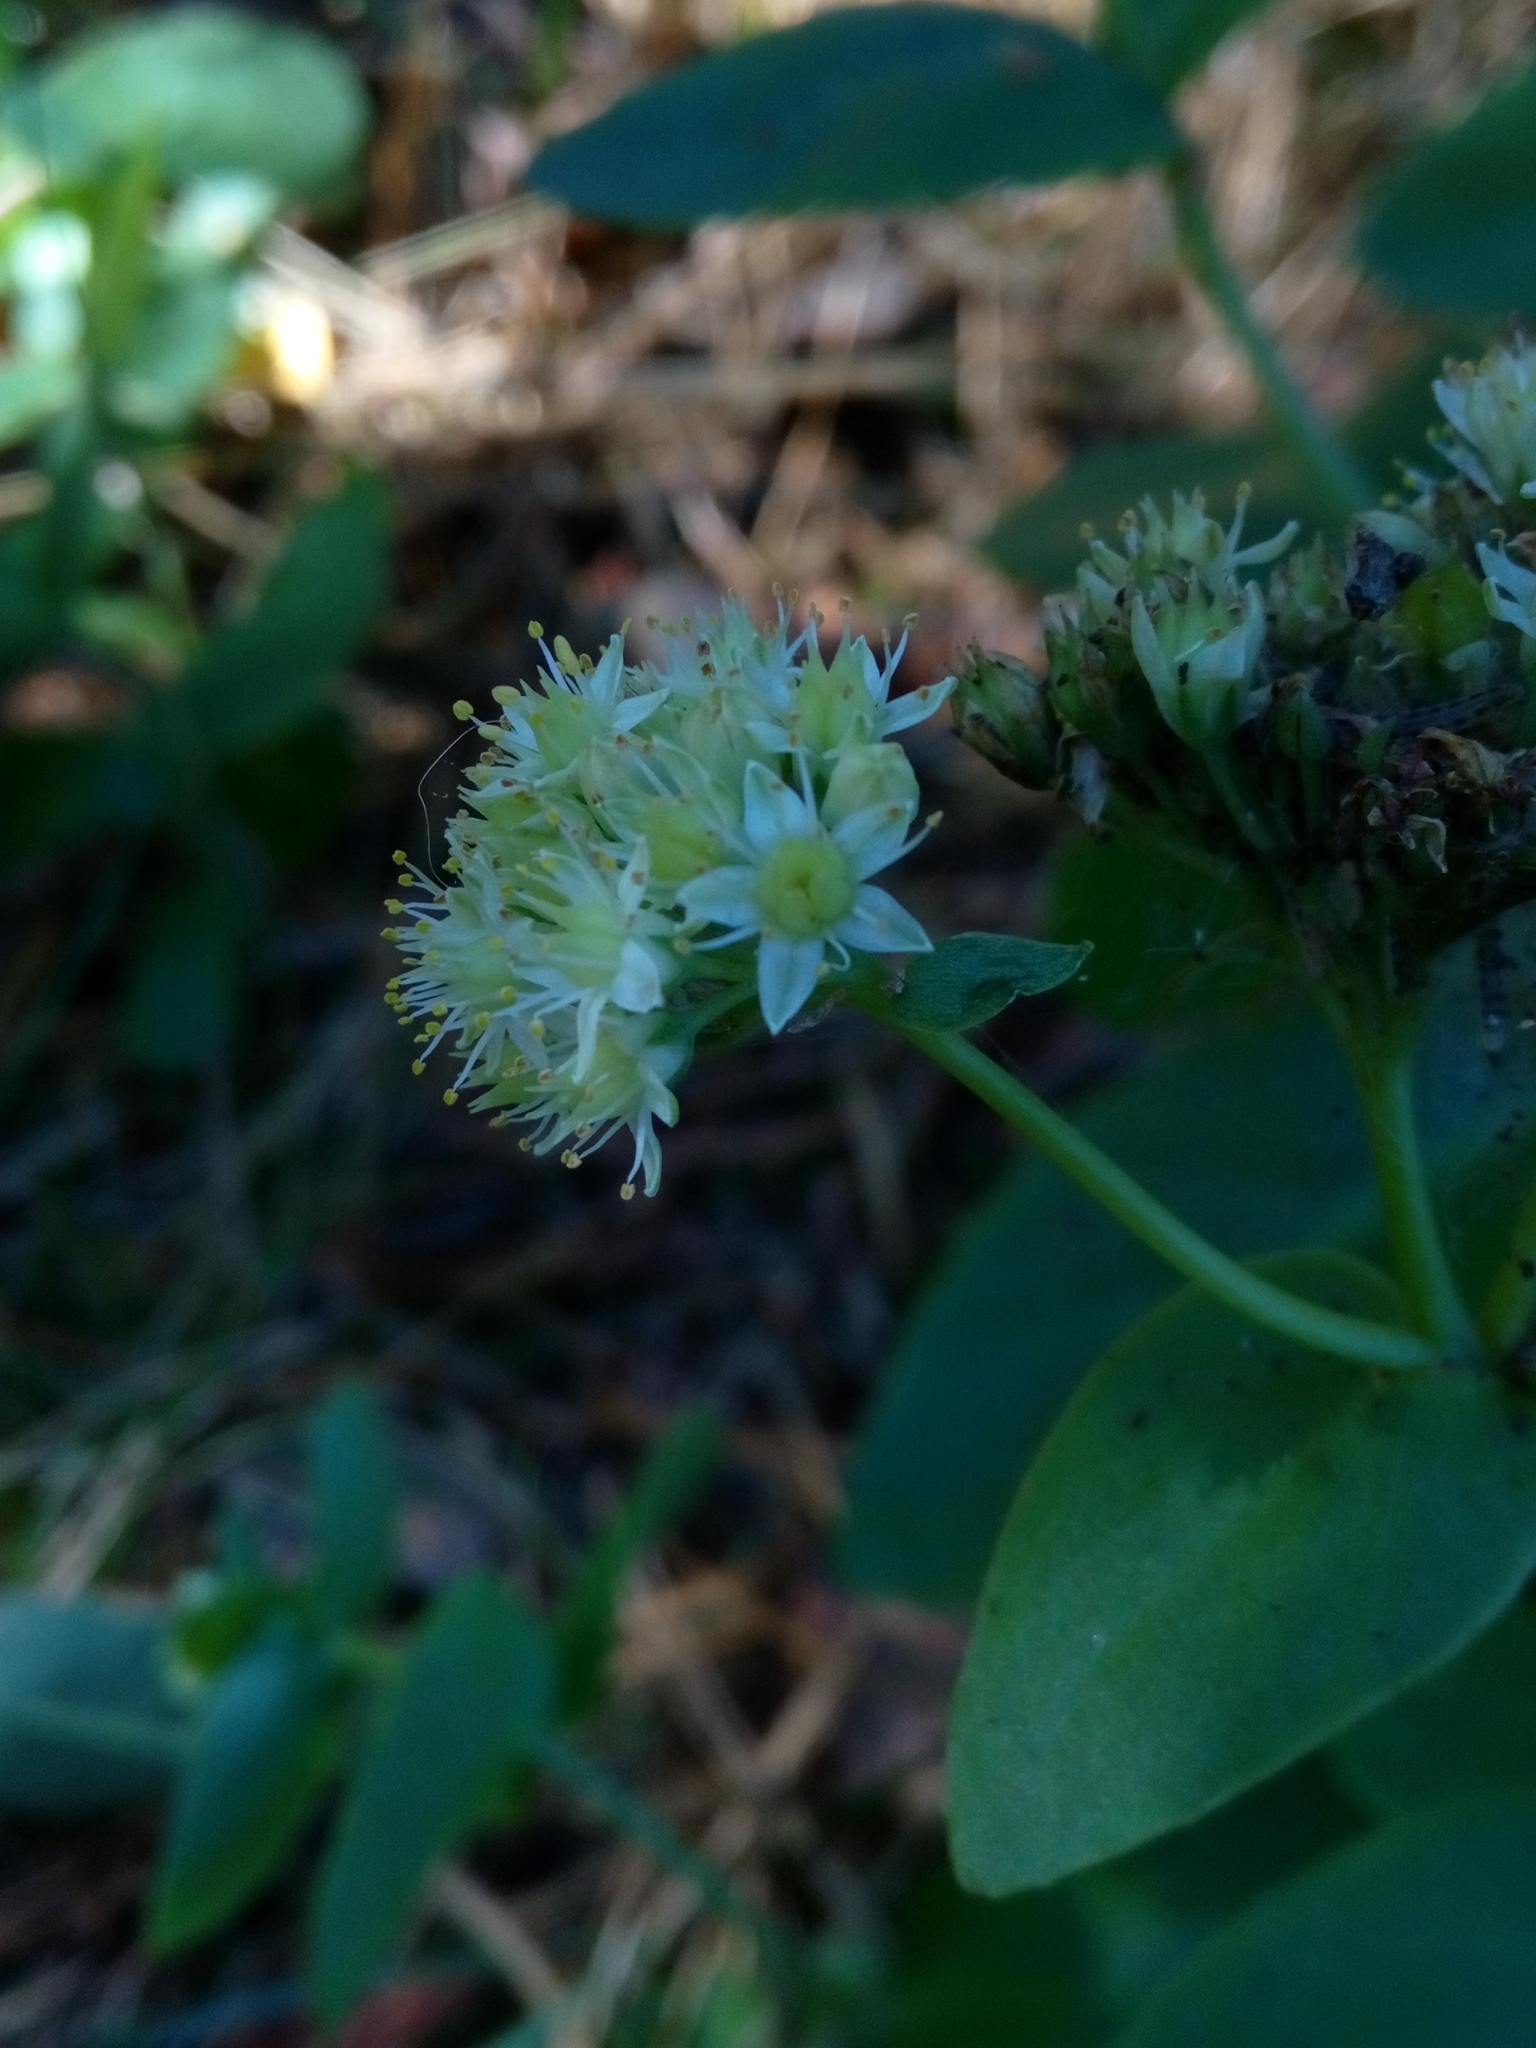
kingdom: Plantae
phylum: Tracheophyta
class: Magnoliopsida
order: Saxifragales
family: Crassulaceae
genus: Hylotelephium
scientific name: Hylotelephium maximum
